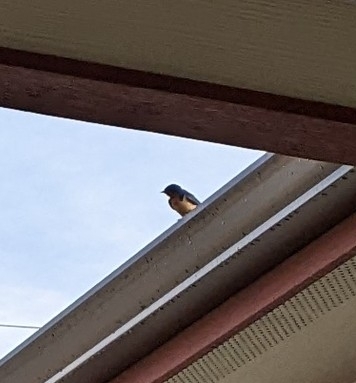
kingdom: Animalia
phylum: Chordata
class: Aves
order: Passeriformes
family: Hirundinidae
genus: Hirundo
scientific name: Hirundo rustica
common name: Barn swallow
